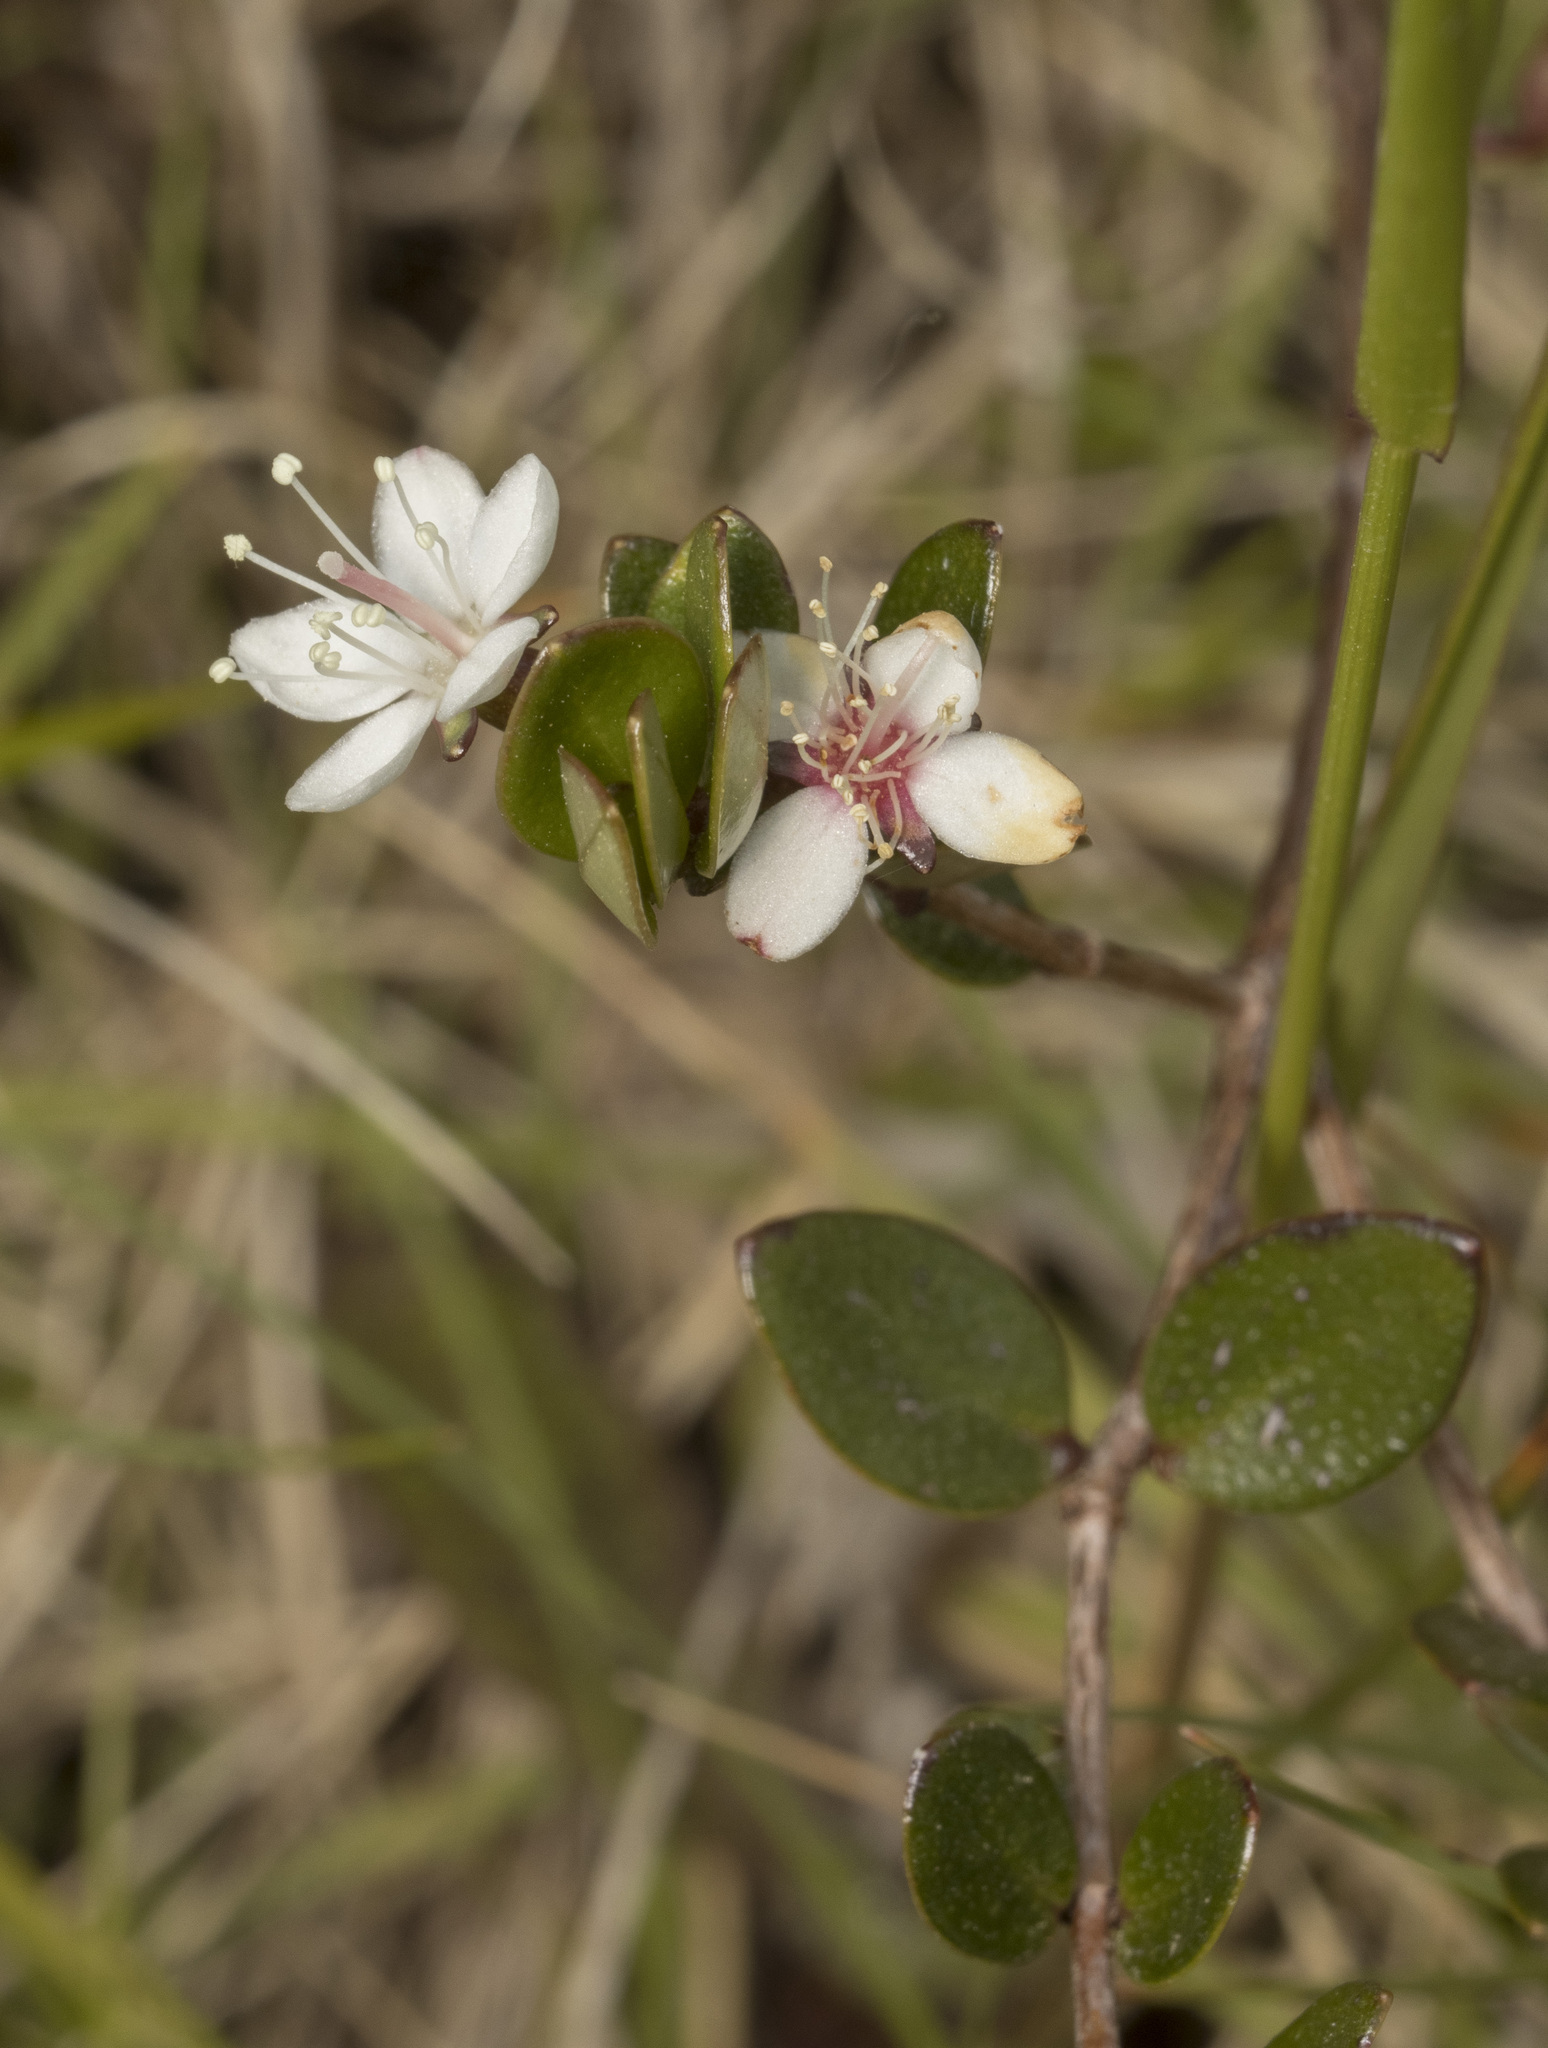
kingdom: Plantae
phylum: Tracheophyta
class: Magnoliopsida
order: Myrtales
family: Myrtaceae
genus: Myrteola
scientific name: Myrteola nummularia
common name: Cranberry-myrtle
